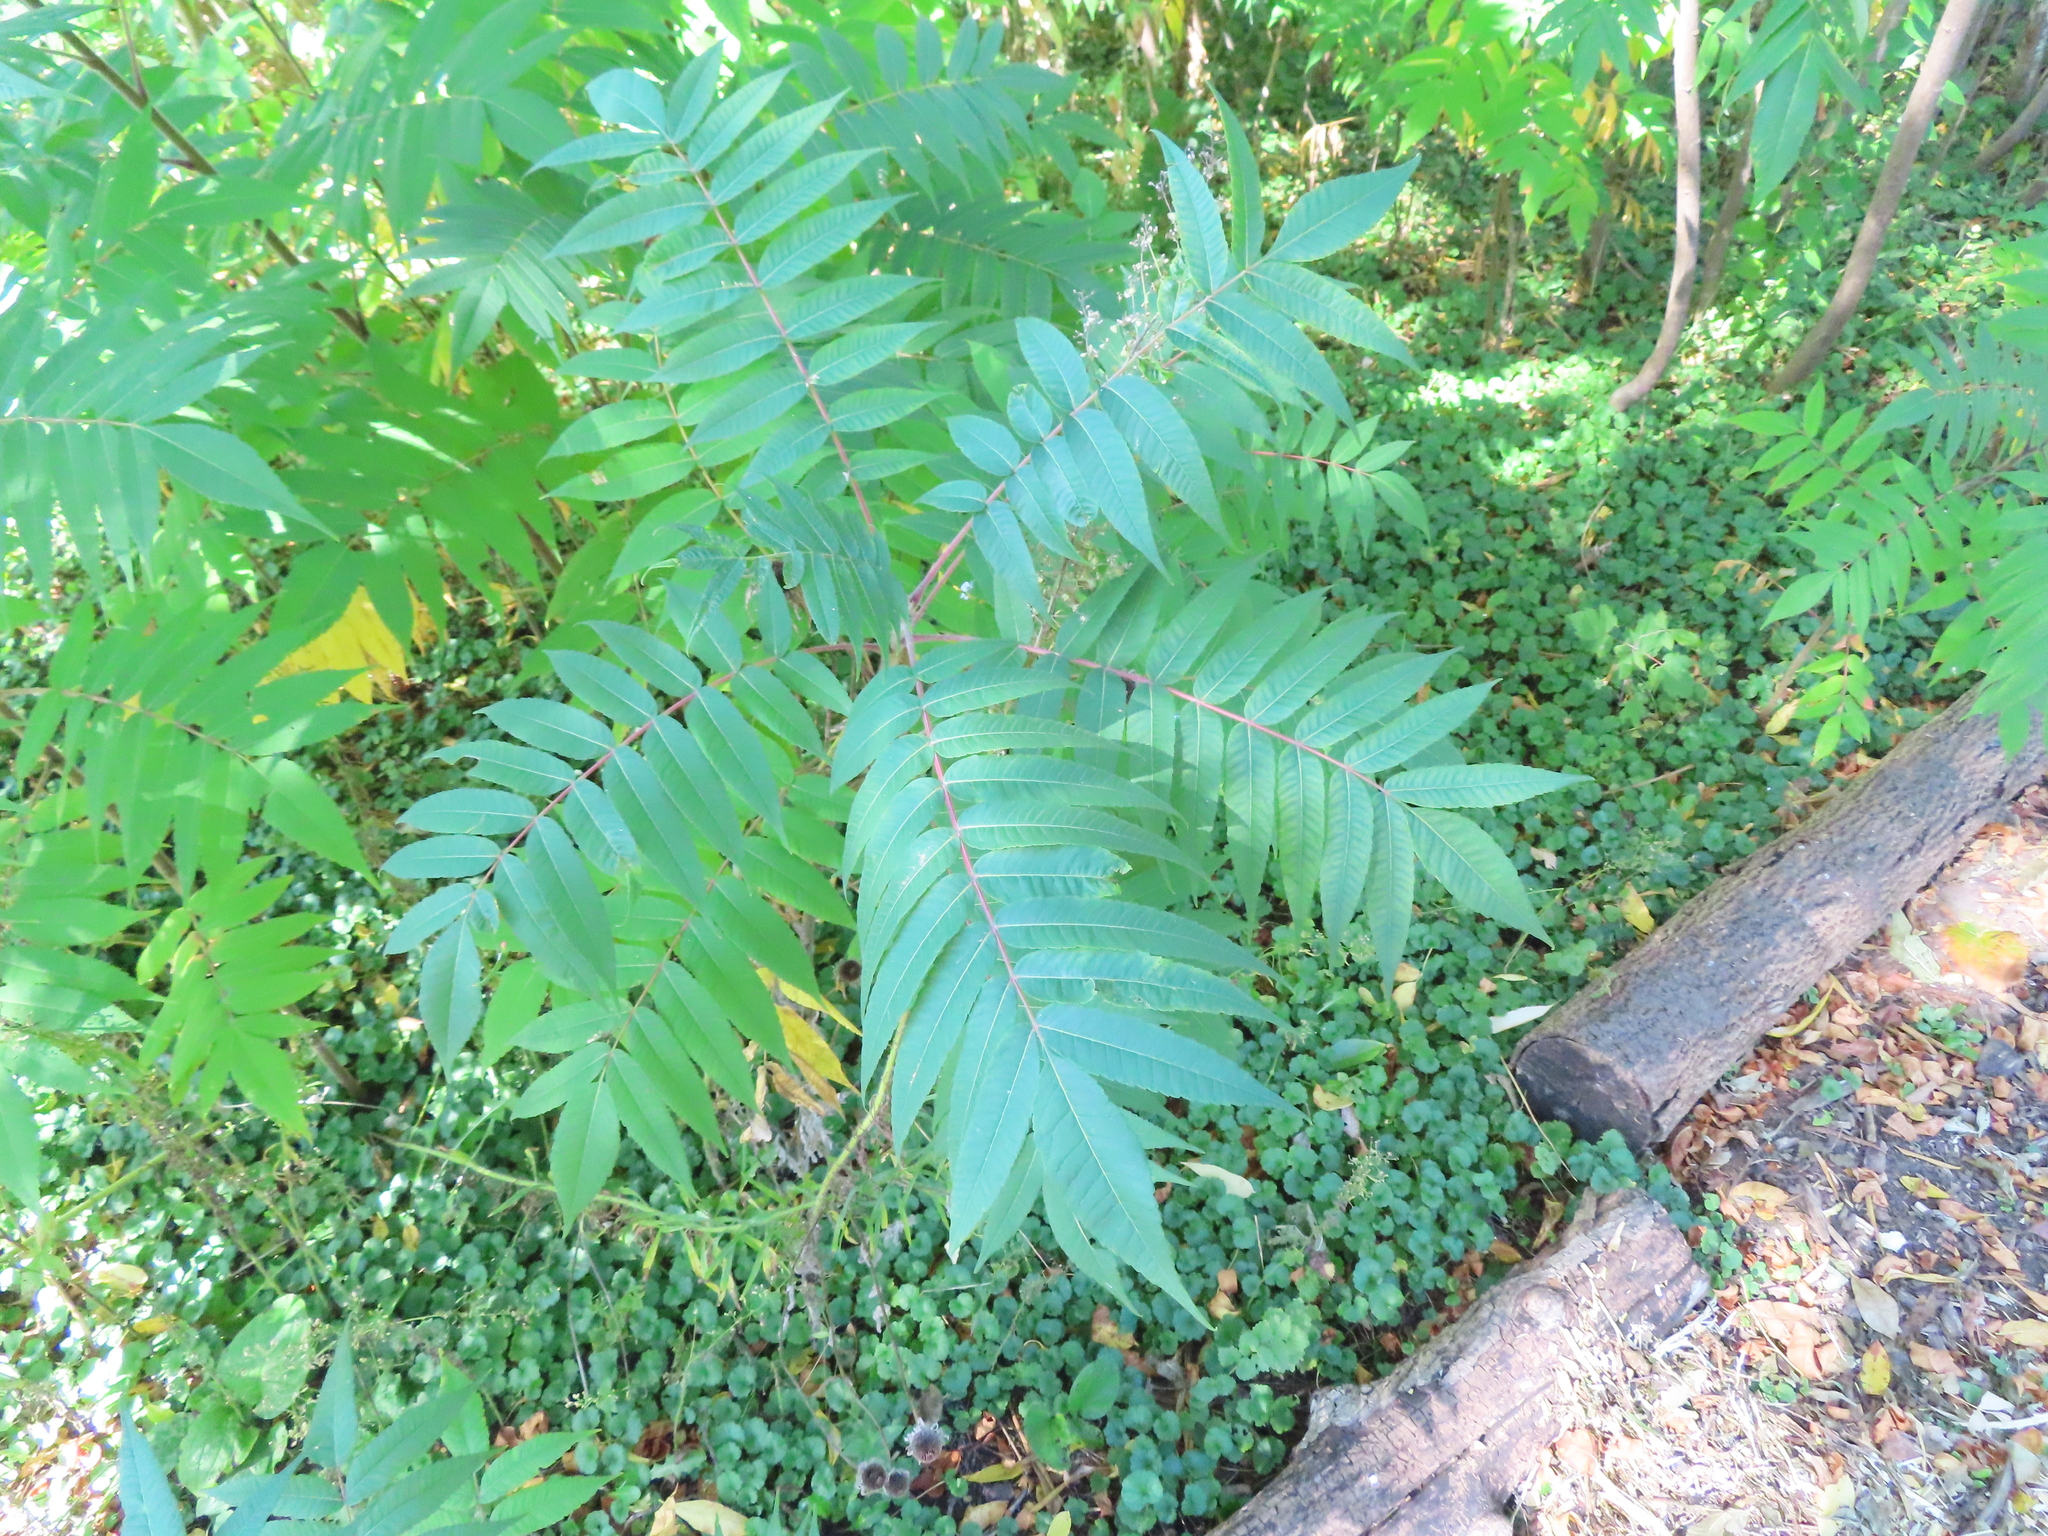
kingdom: Plantae
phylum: Tracheophyta
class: Magnoliopsida
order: Sapindales
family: Anacardiaceae
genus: Rhus
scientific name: Rhus typhina
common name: Staghorn sumac
